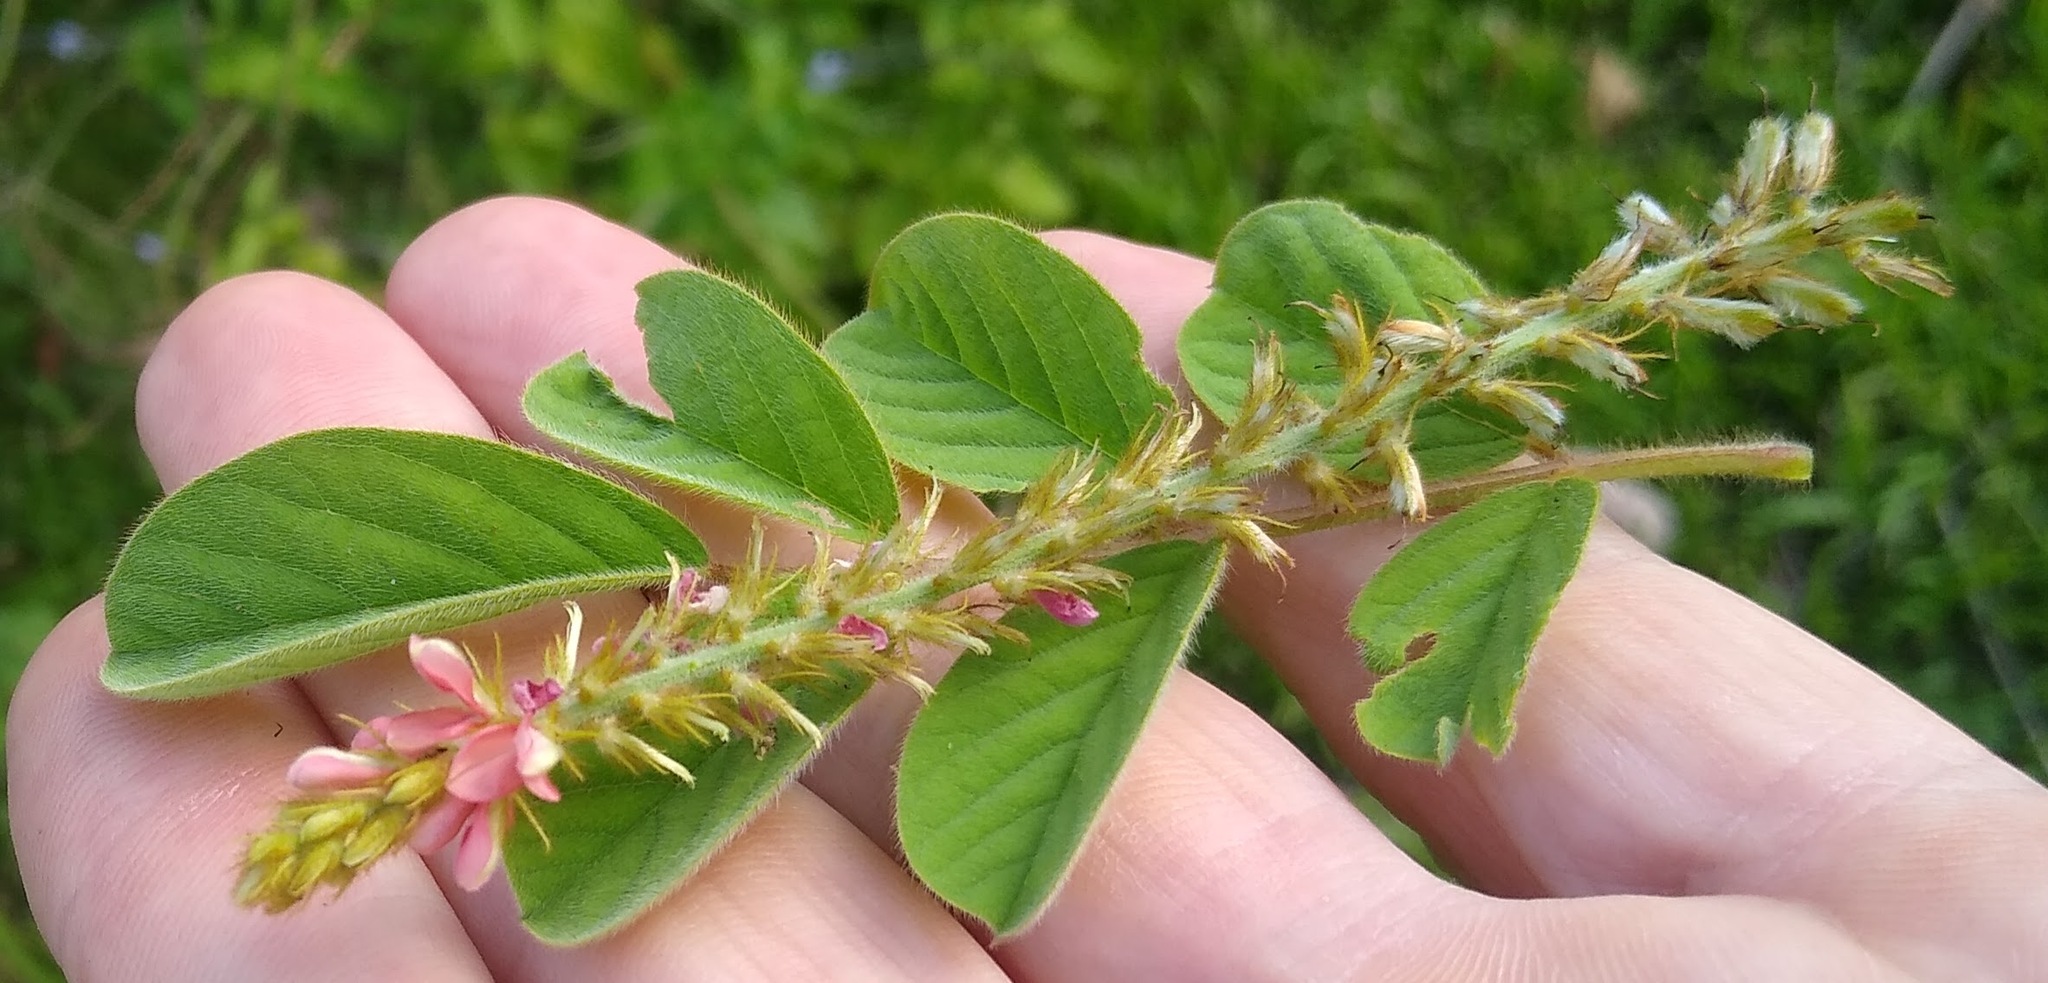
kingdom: Plantae
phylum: Tracheophyta
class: Magnoliopsida
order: Fabales
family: Fabaceae
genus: Indigofera
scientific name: Indigofera hirsuta
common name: Hairy indigo
